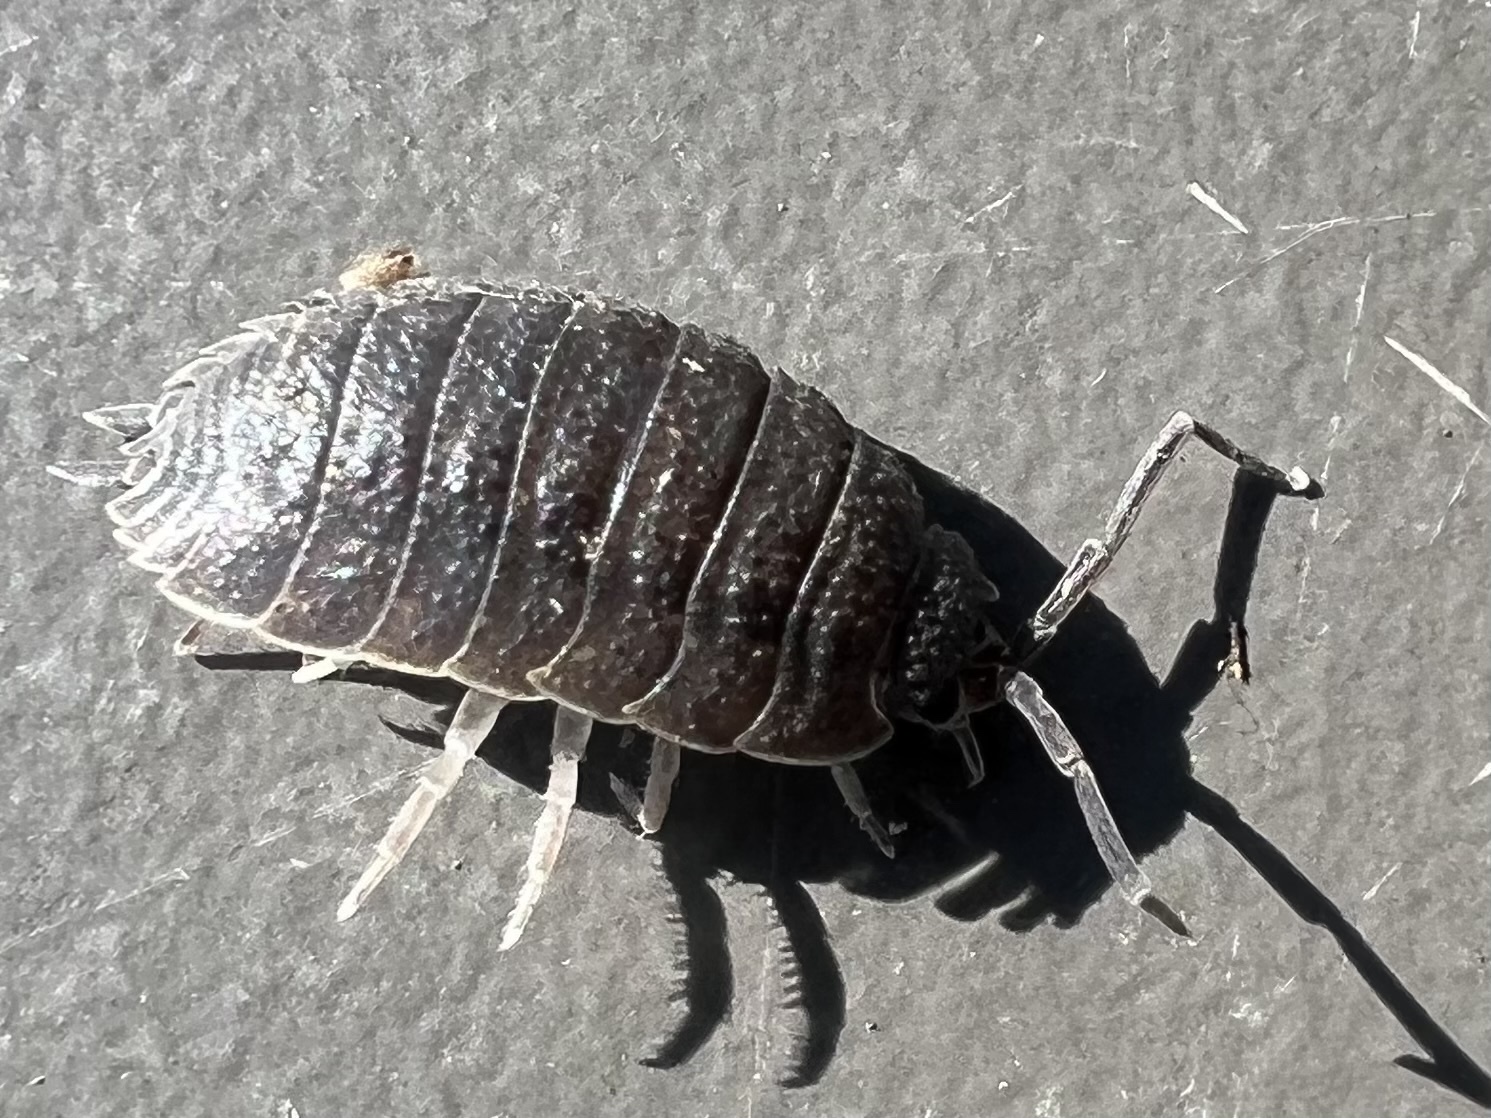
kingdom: Animalia
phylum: Arthropoda
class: Malacostraca
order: Isopoda
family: Porcellionidae
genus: Porcellio
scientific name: Porcellio scaber
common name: Common rough woodlouse
